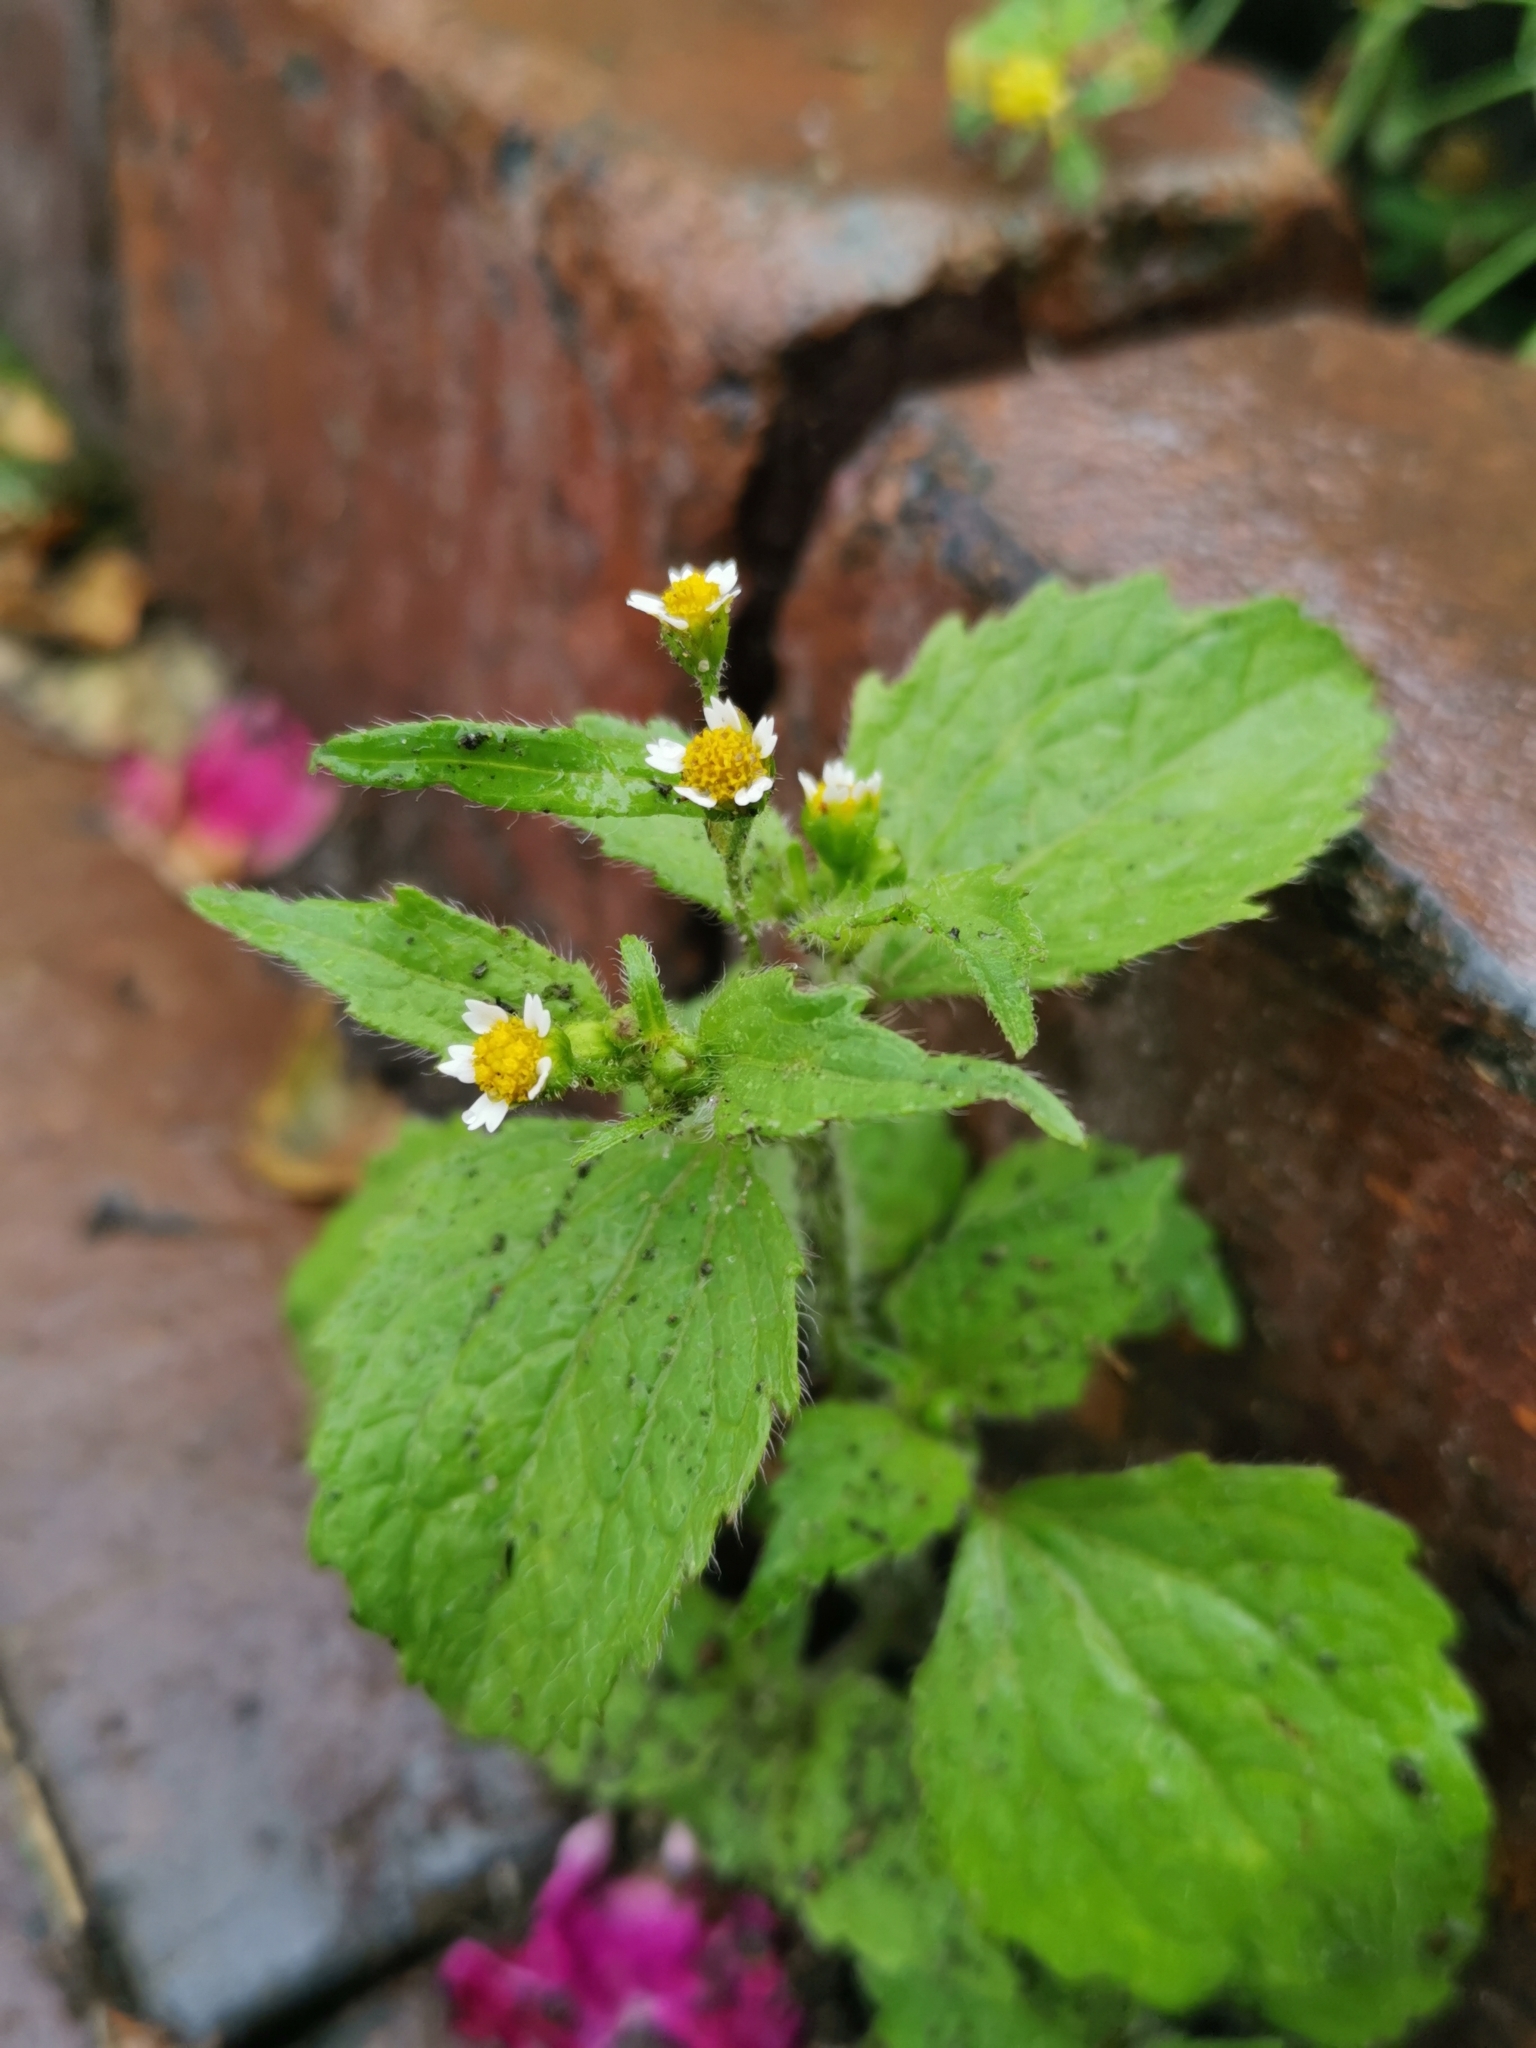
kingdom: Plantae
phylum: Tracheophyta
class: Magnoliopsida
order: Asterales
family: Asteraceae
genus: Galinsoga
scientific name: Galinsoga quadriradiata
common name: Shaggy soldier
